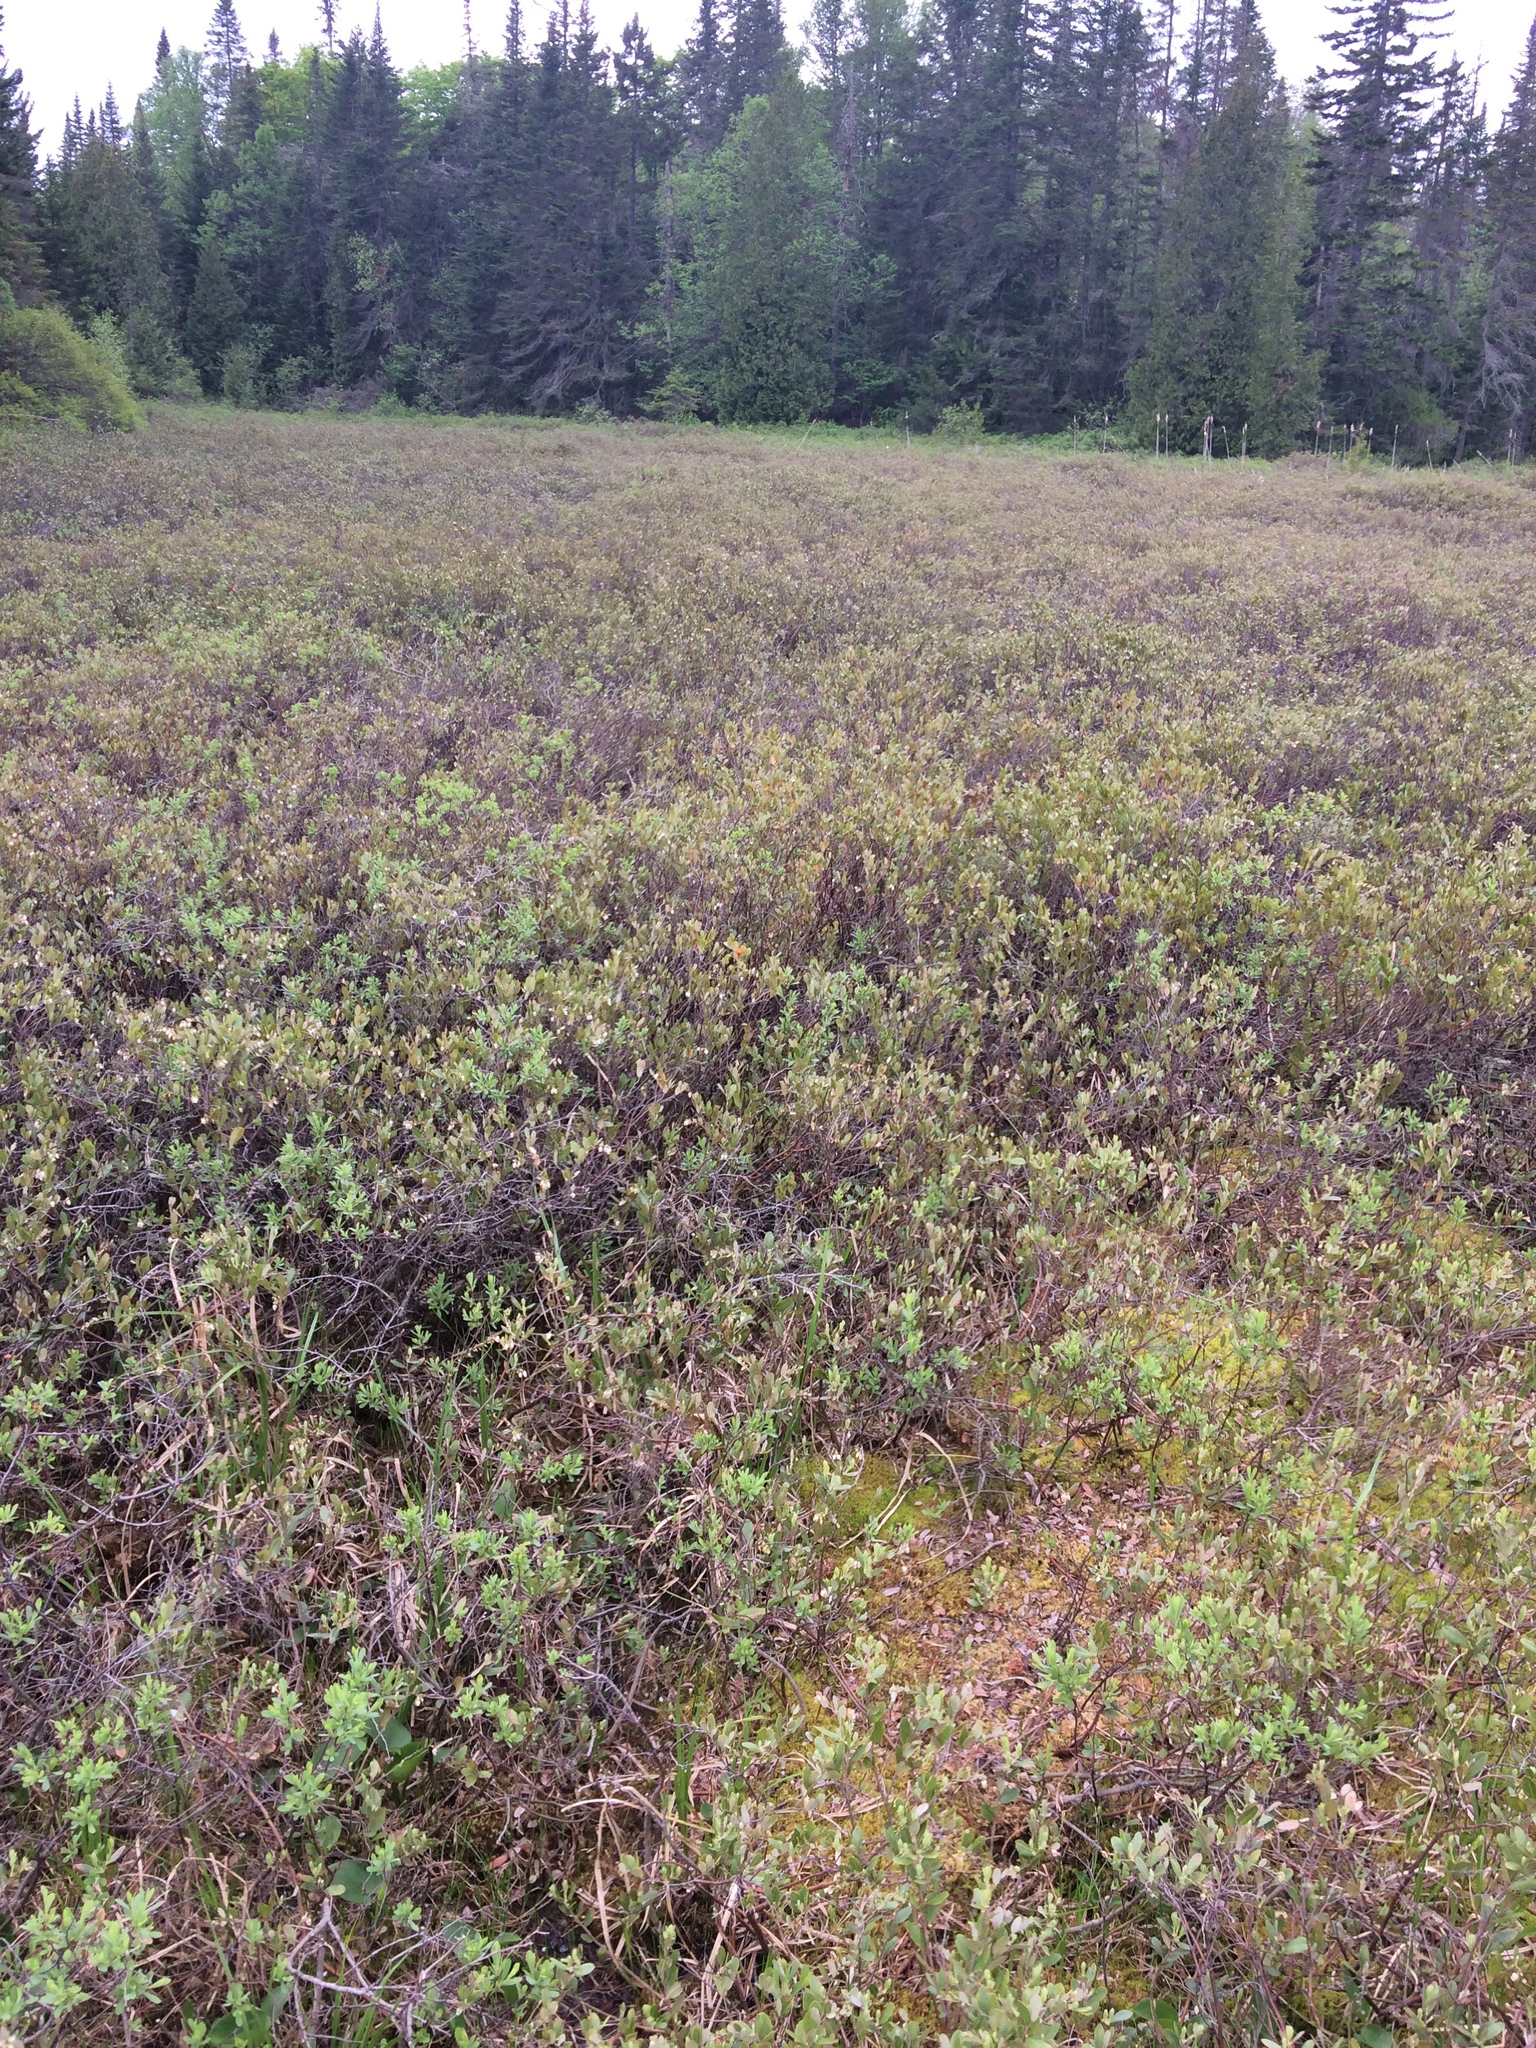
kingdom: Plantae
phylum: Tracheophyta
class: Magnoliopsida
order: Ericales
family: Ericaceae
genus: Chamaedaphne
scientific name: Chamaedaphne calyculata
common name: Leatherleaf
